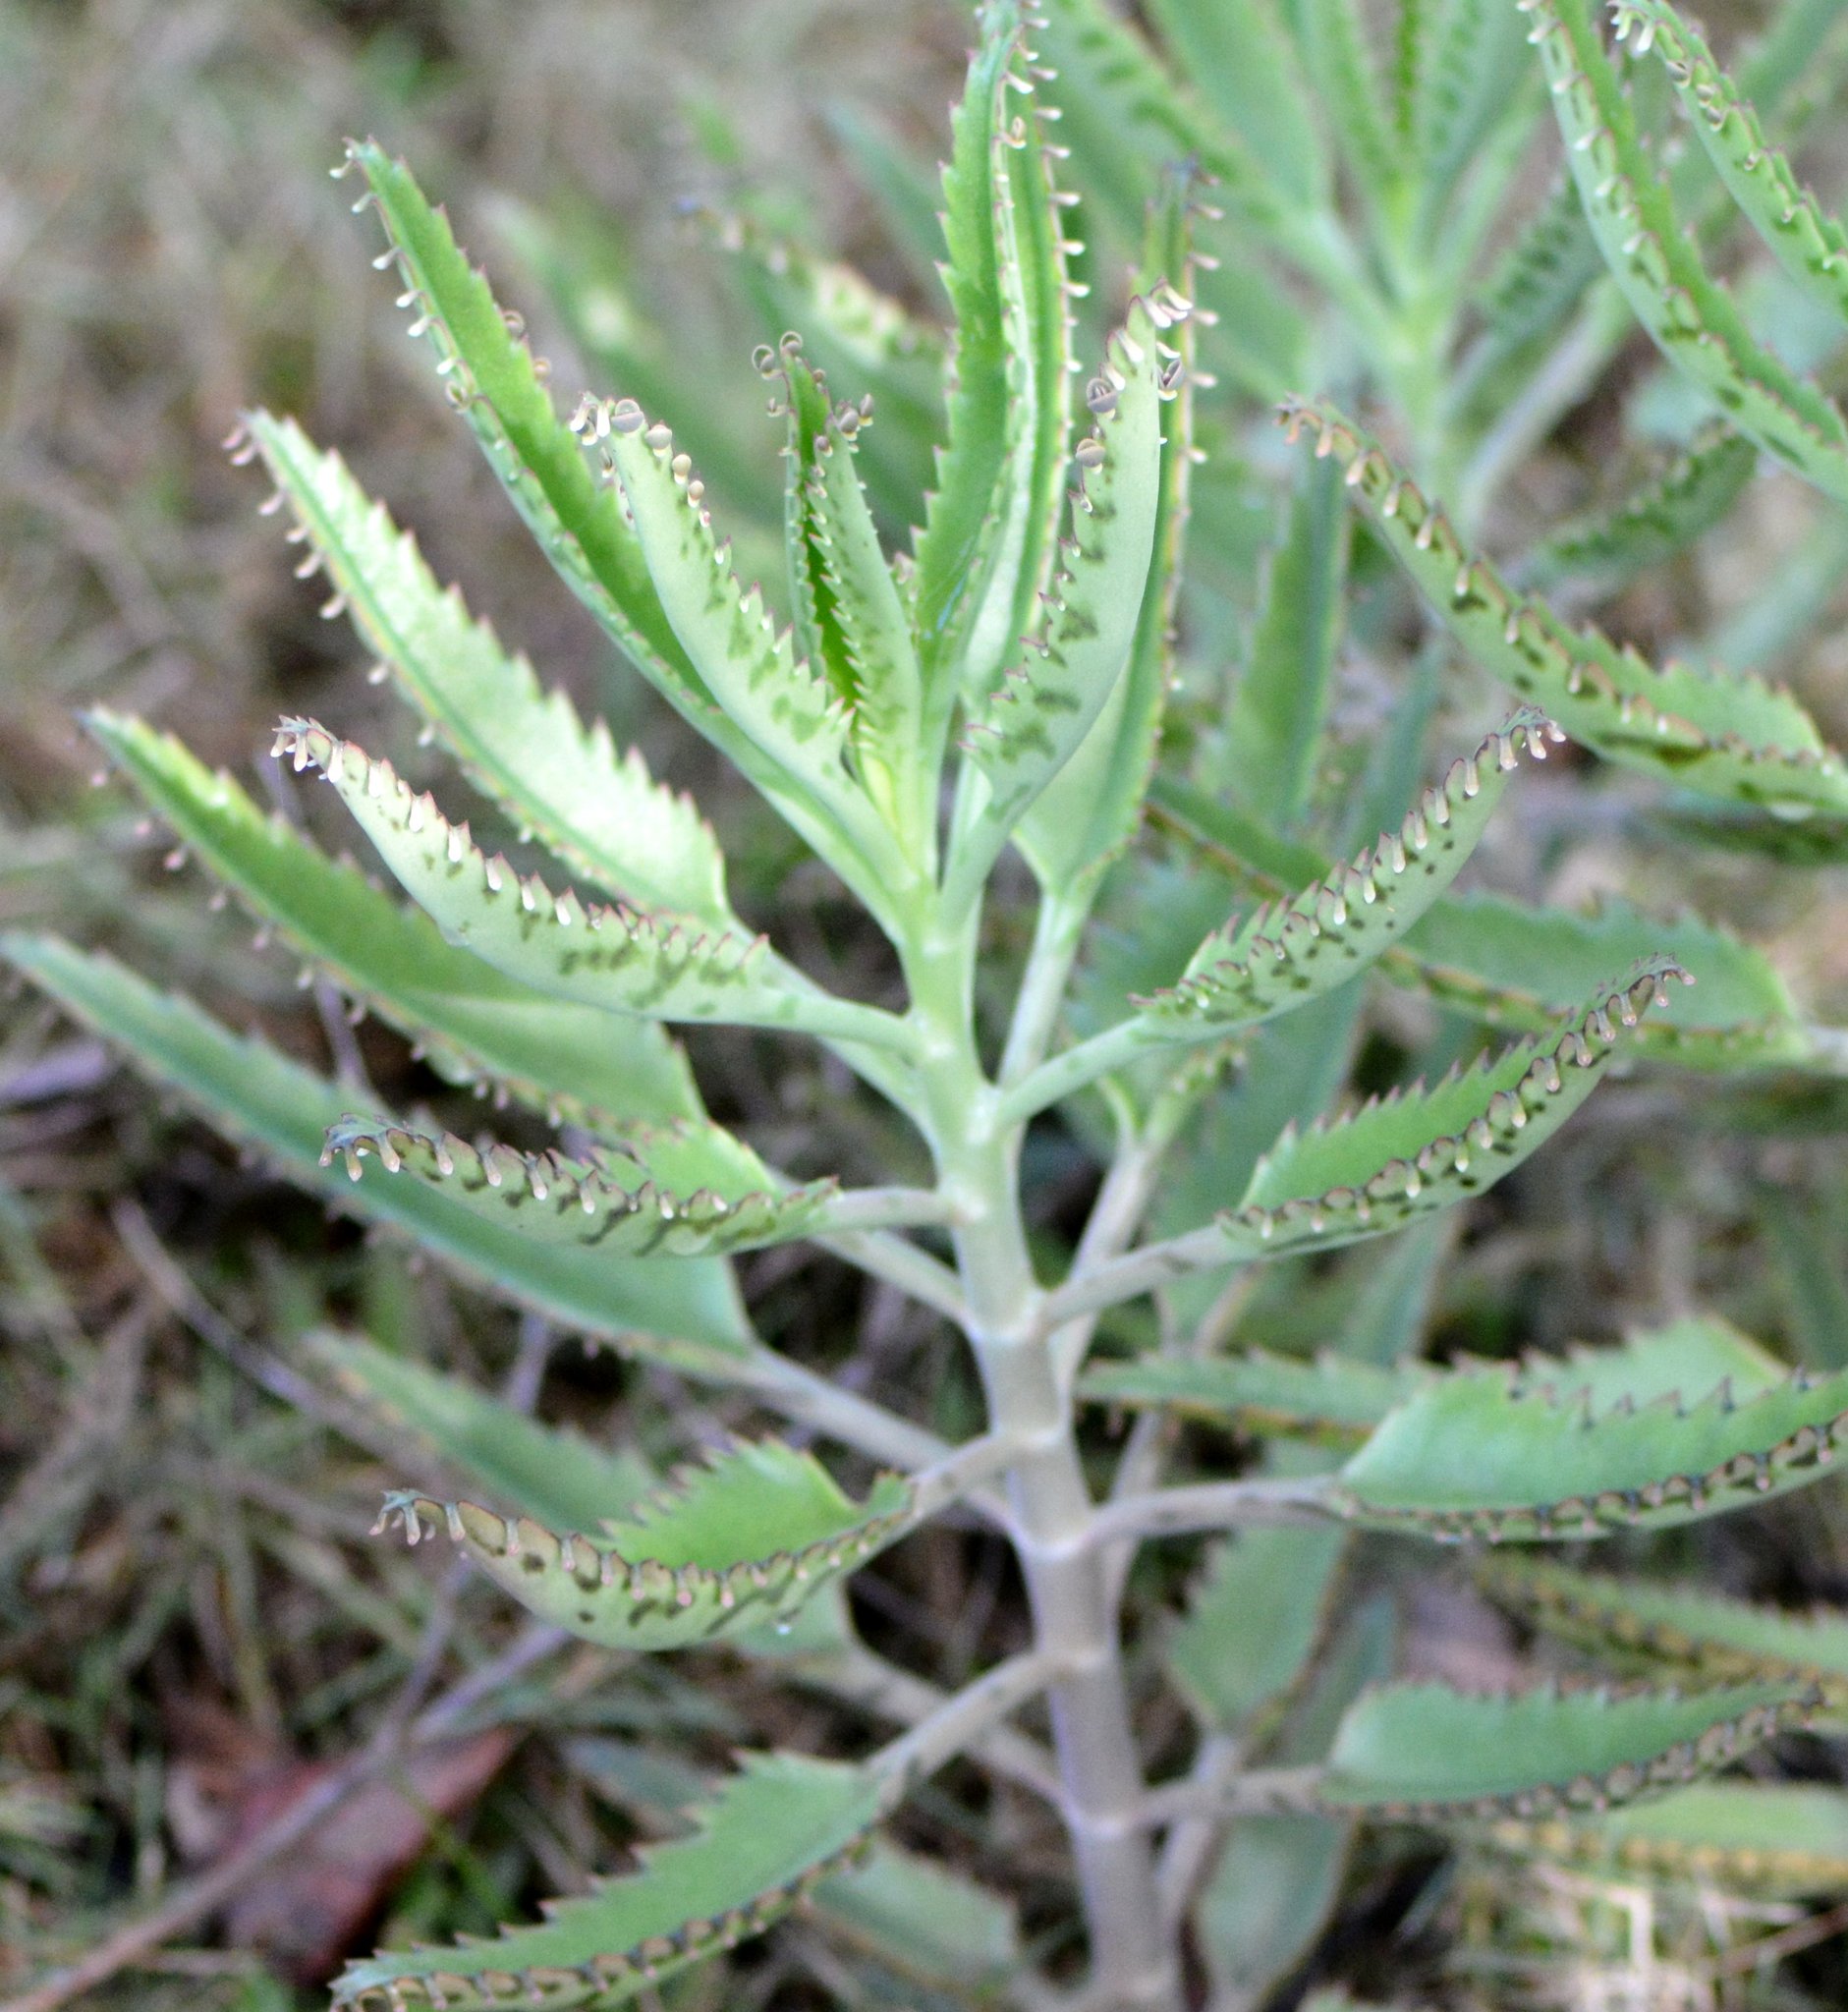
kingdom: Plantae
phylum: Tracheophyta
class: Magnoliopsida
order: Saxifragales
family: Crassulaceae
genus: Kalanchoe
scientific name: Kalanchoe houghtonii
